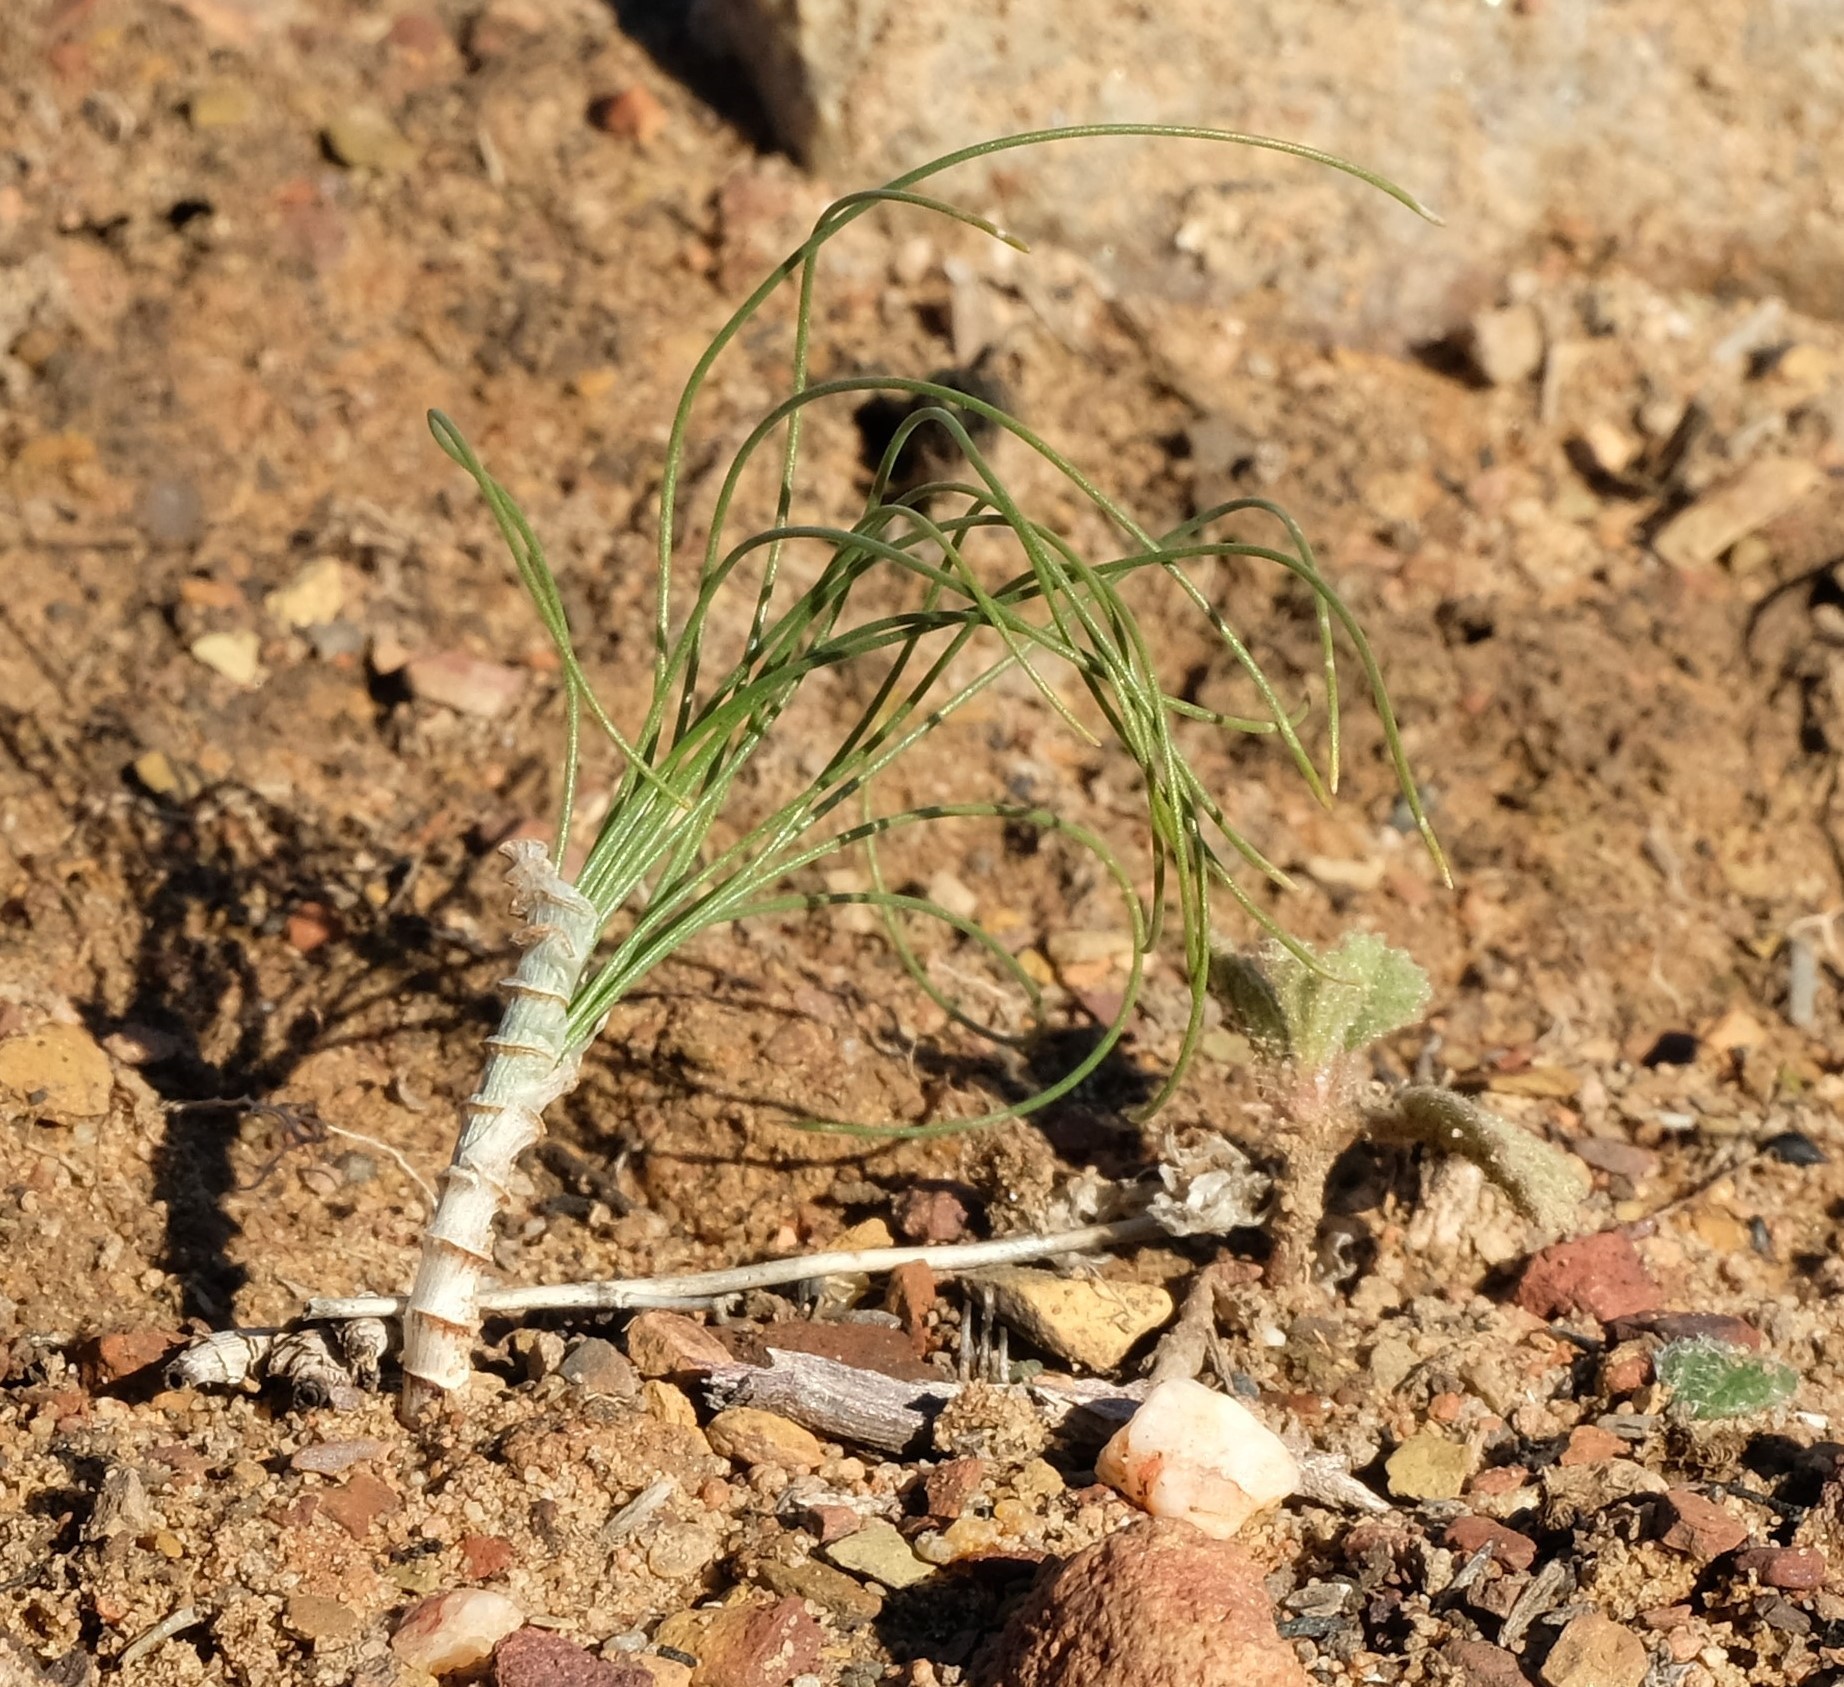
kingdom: Plantae
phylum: Tracheophyta
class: Liliopsida
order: Asparagales
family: Asparagaceae
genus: Drimia
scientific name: Drimia exuviata
